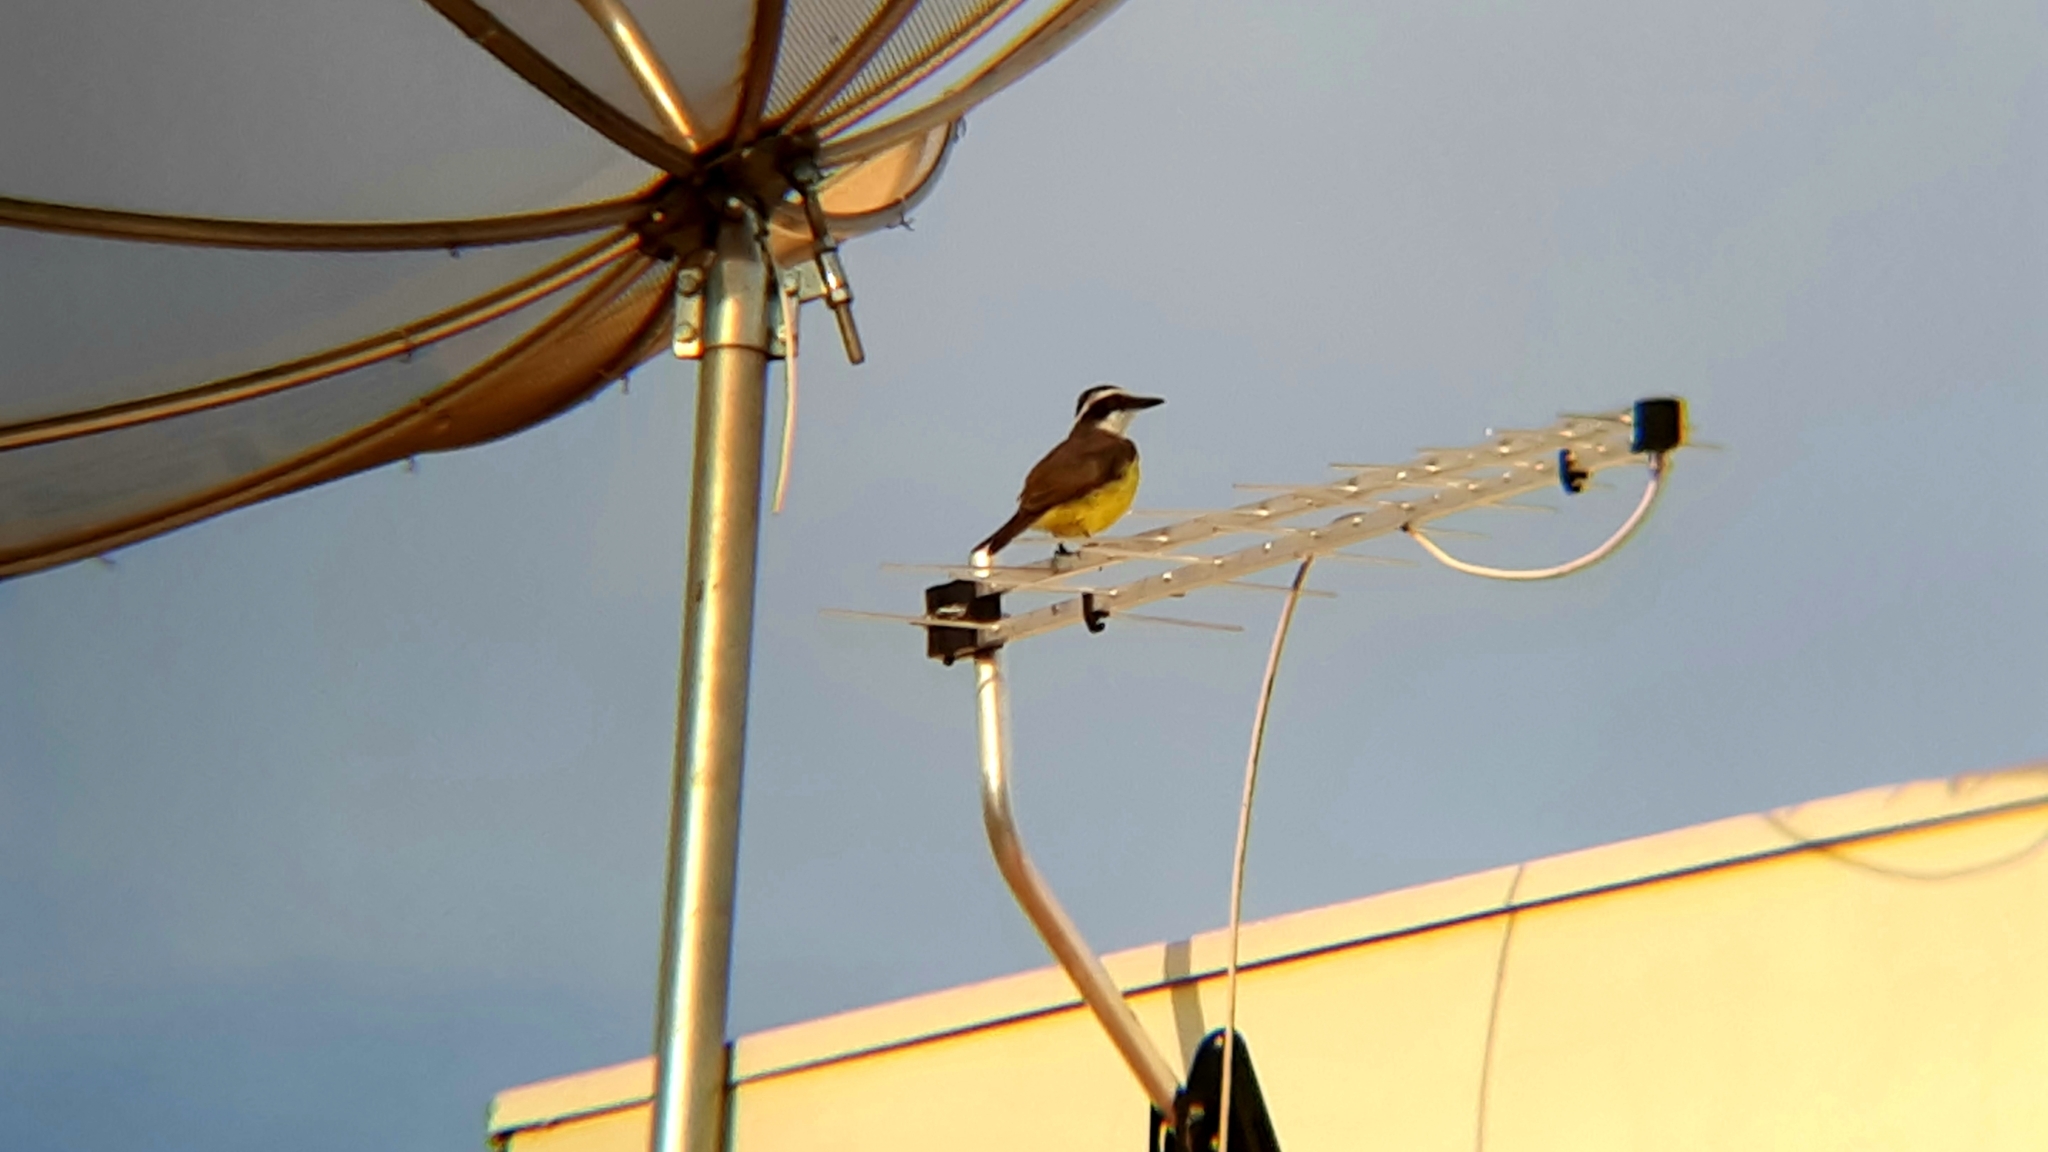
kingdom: Animalia
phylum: Chordata
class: Aves
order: Passeriformes
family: Tyrannidae
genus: Pitangus
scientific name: Pitangus sulphuratus
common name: Great kiskadee
